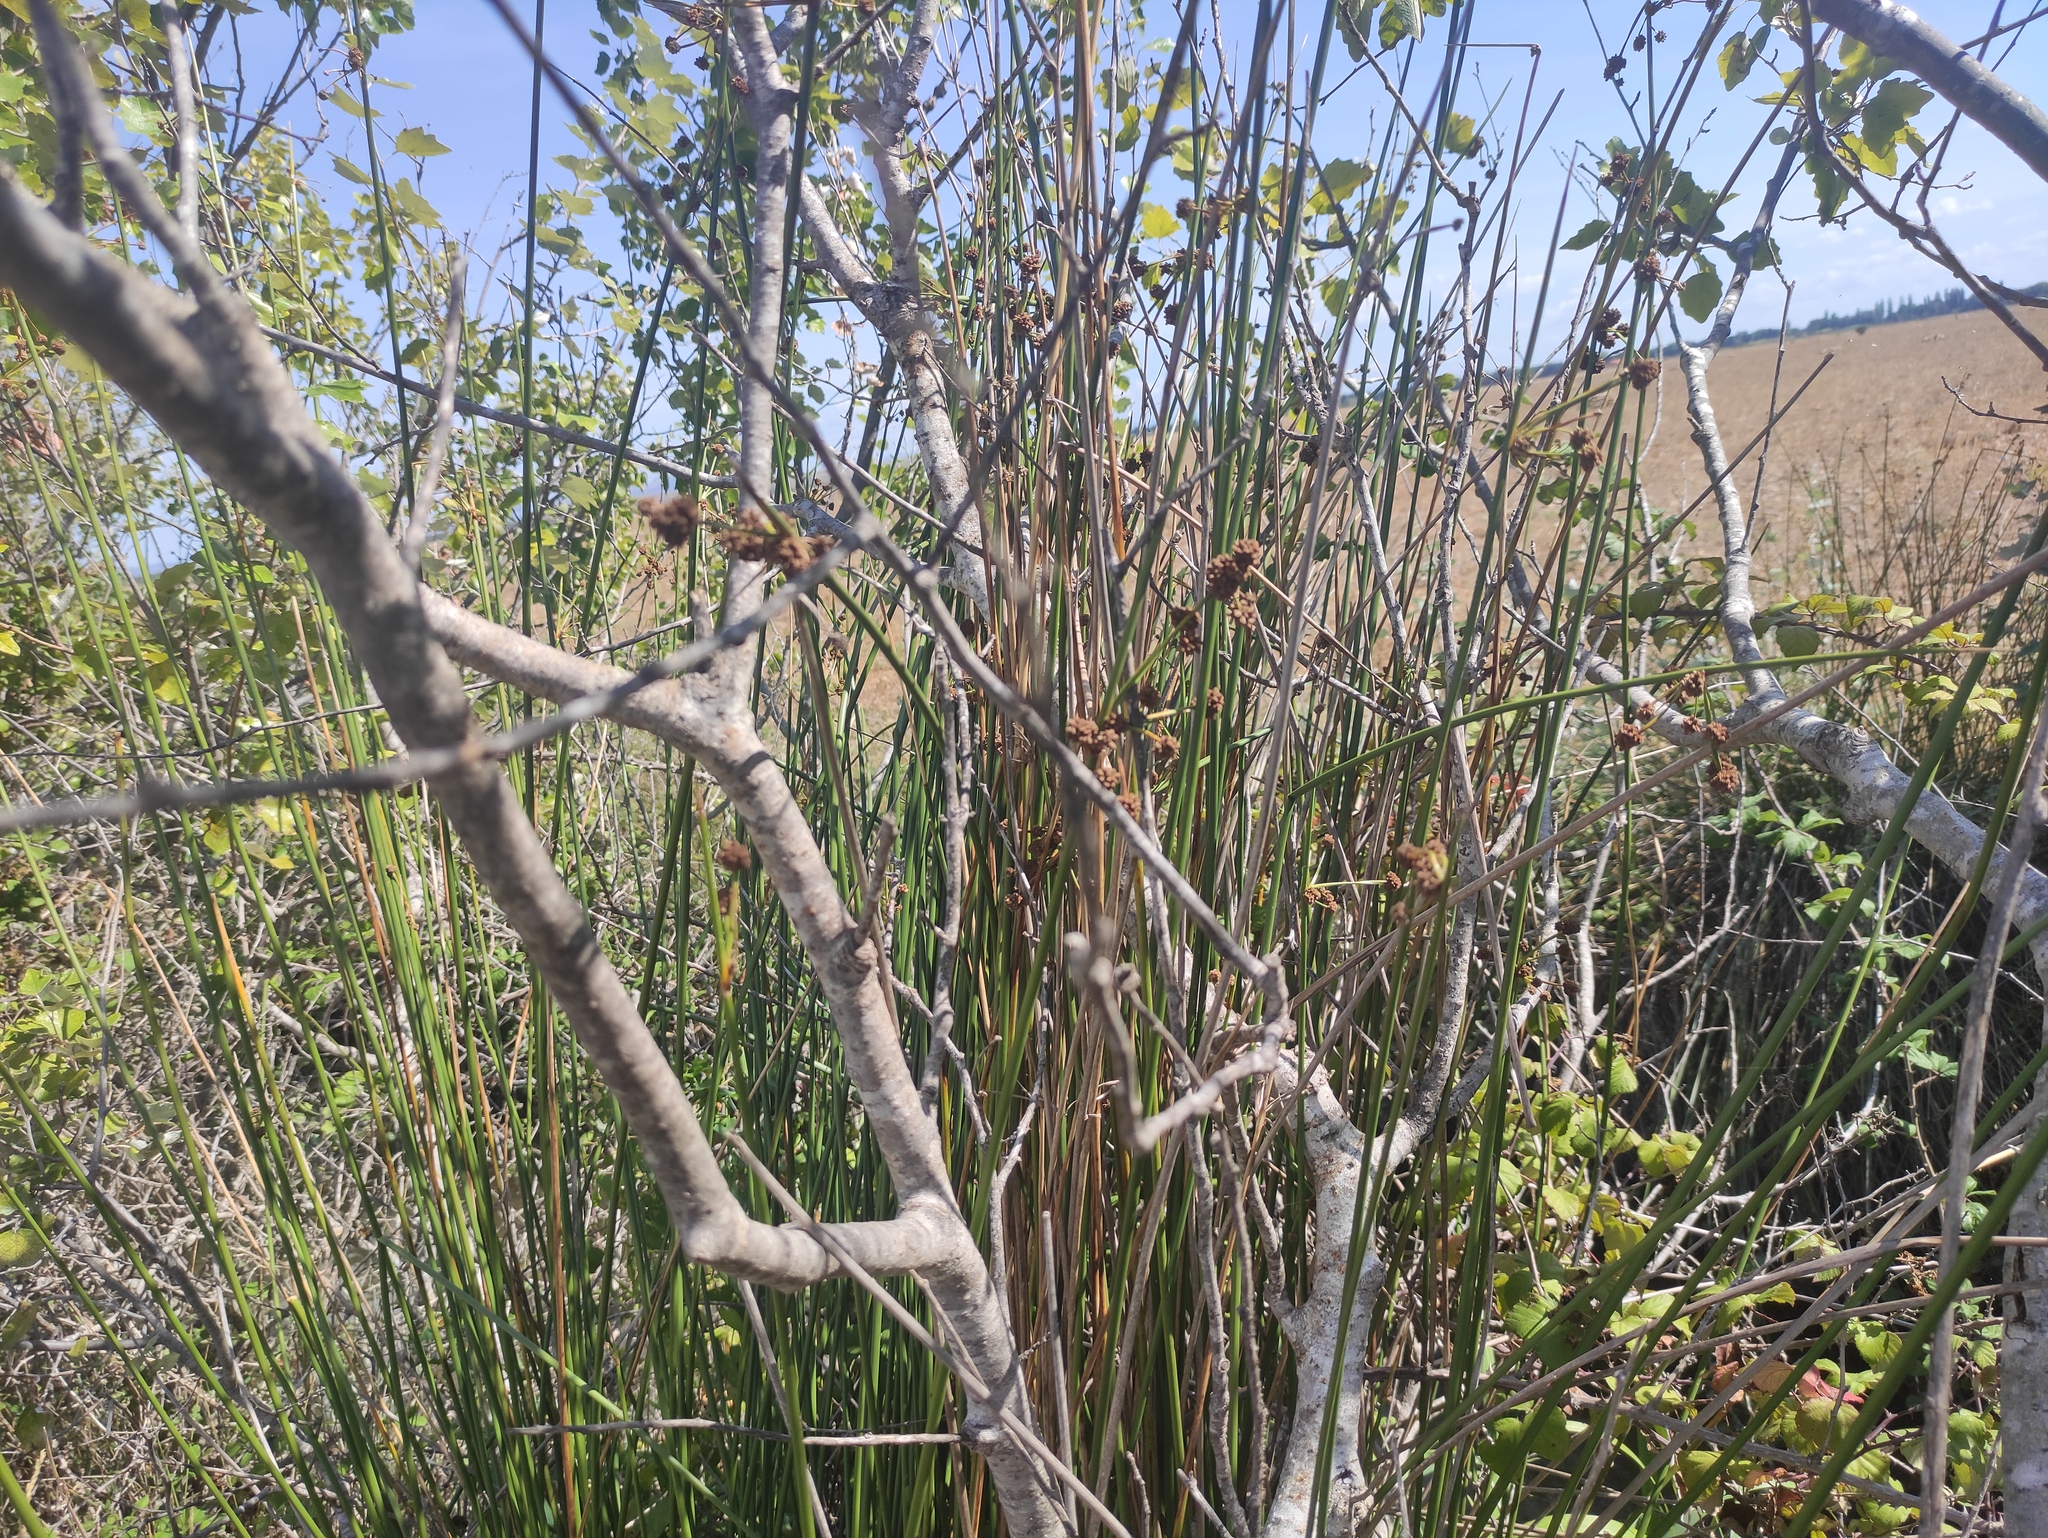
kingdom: Plantae
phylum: Tracheophyta
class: Liliopsida
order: Poales
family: Cyperaceae
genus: Scirpoides
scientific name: Scirpoides holoschoenus
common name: Round-headed club-rush
